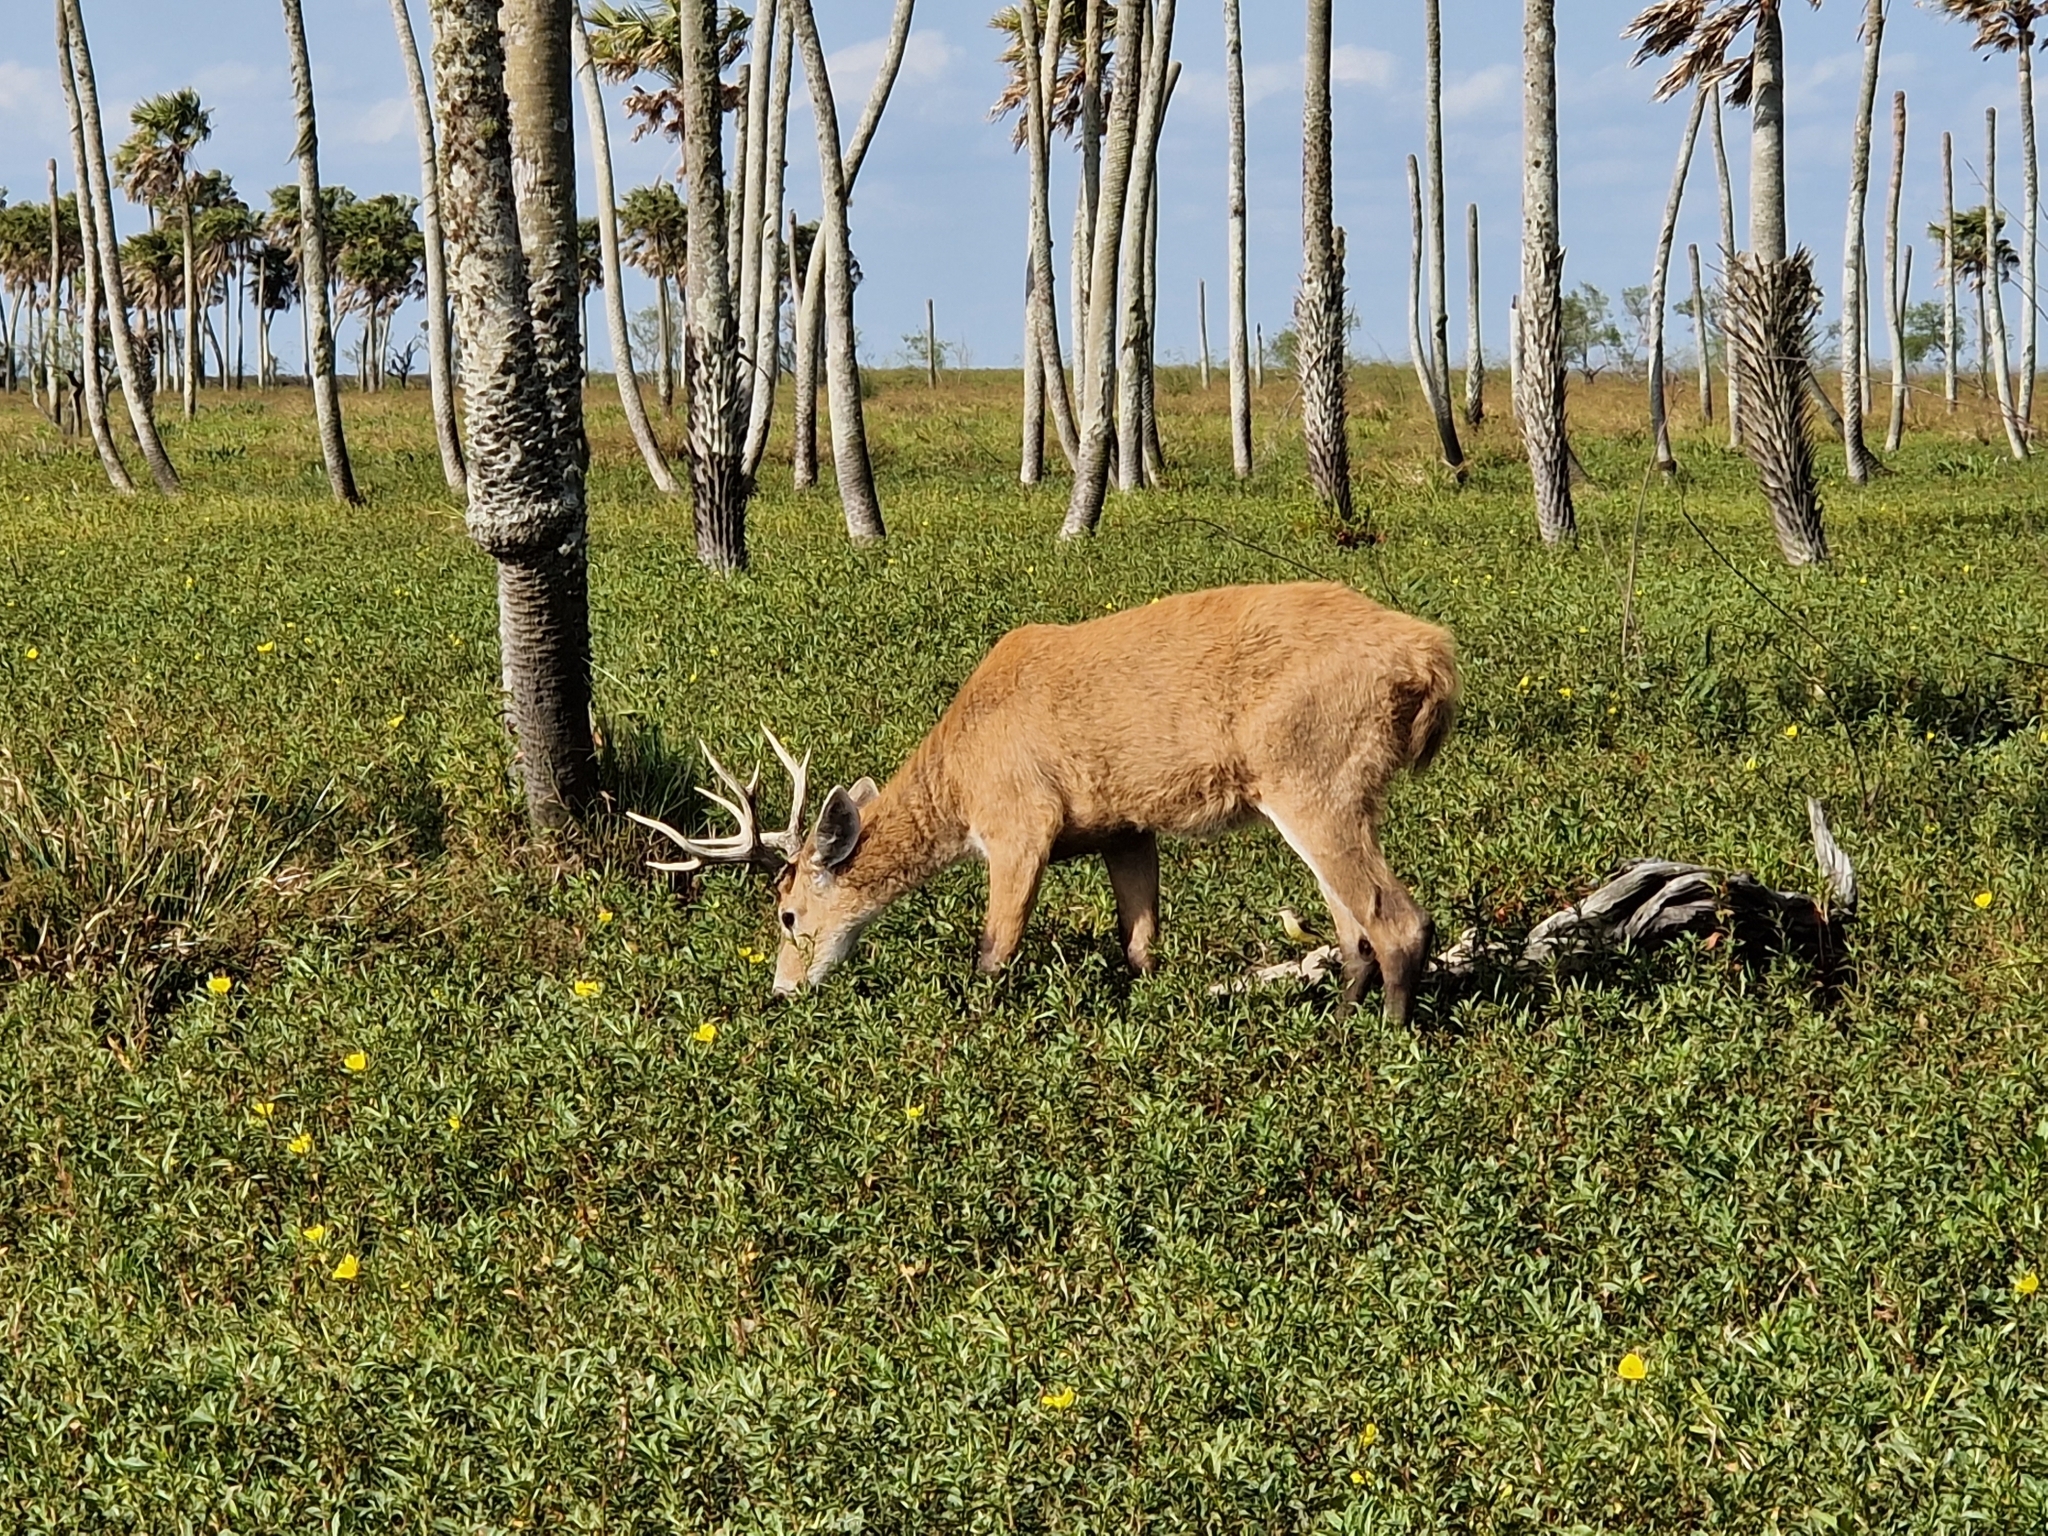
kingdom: Animalia
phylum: Chordata
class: Mammalia
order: Artiodactyla
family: Cervidae
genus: Blastocerus
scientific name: Blastocerus dichotomus
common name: Marsh deer
